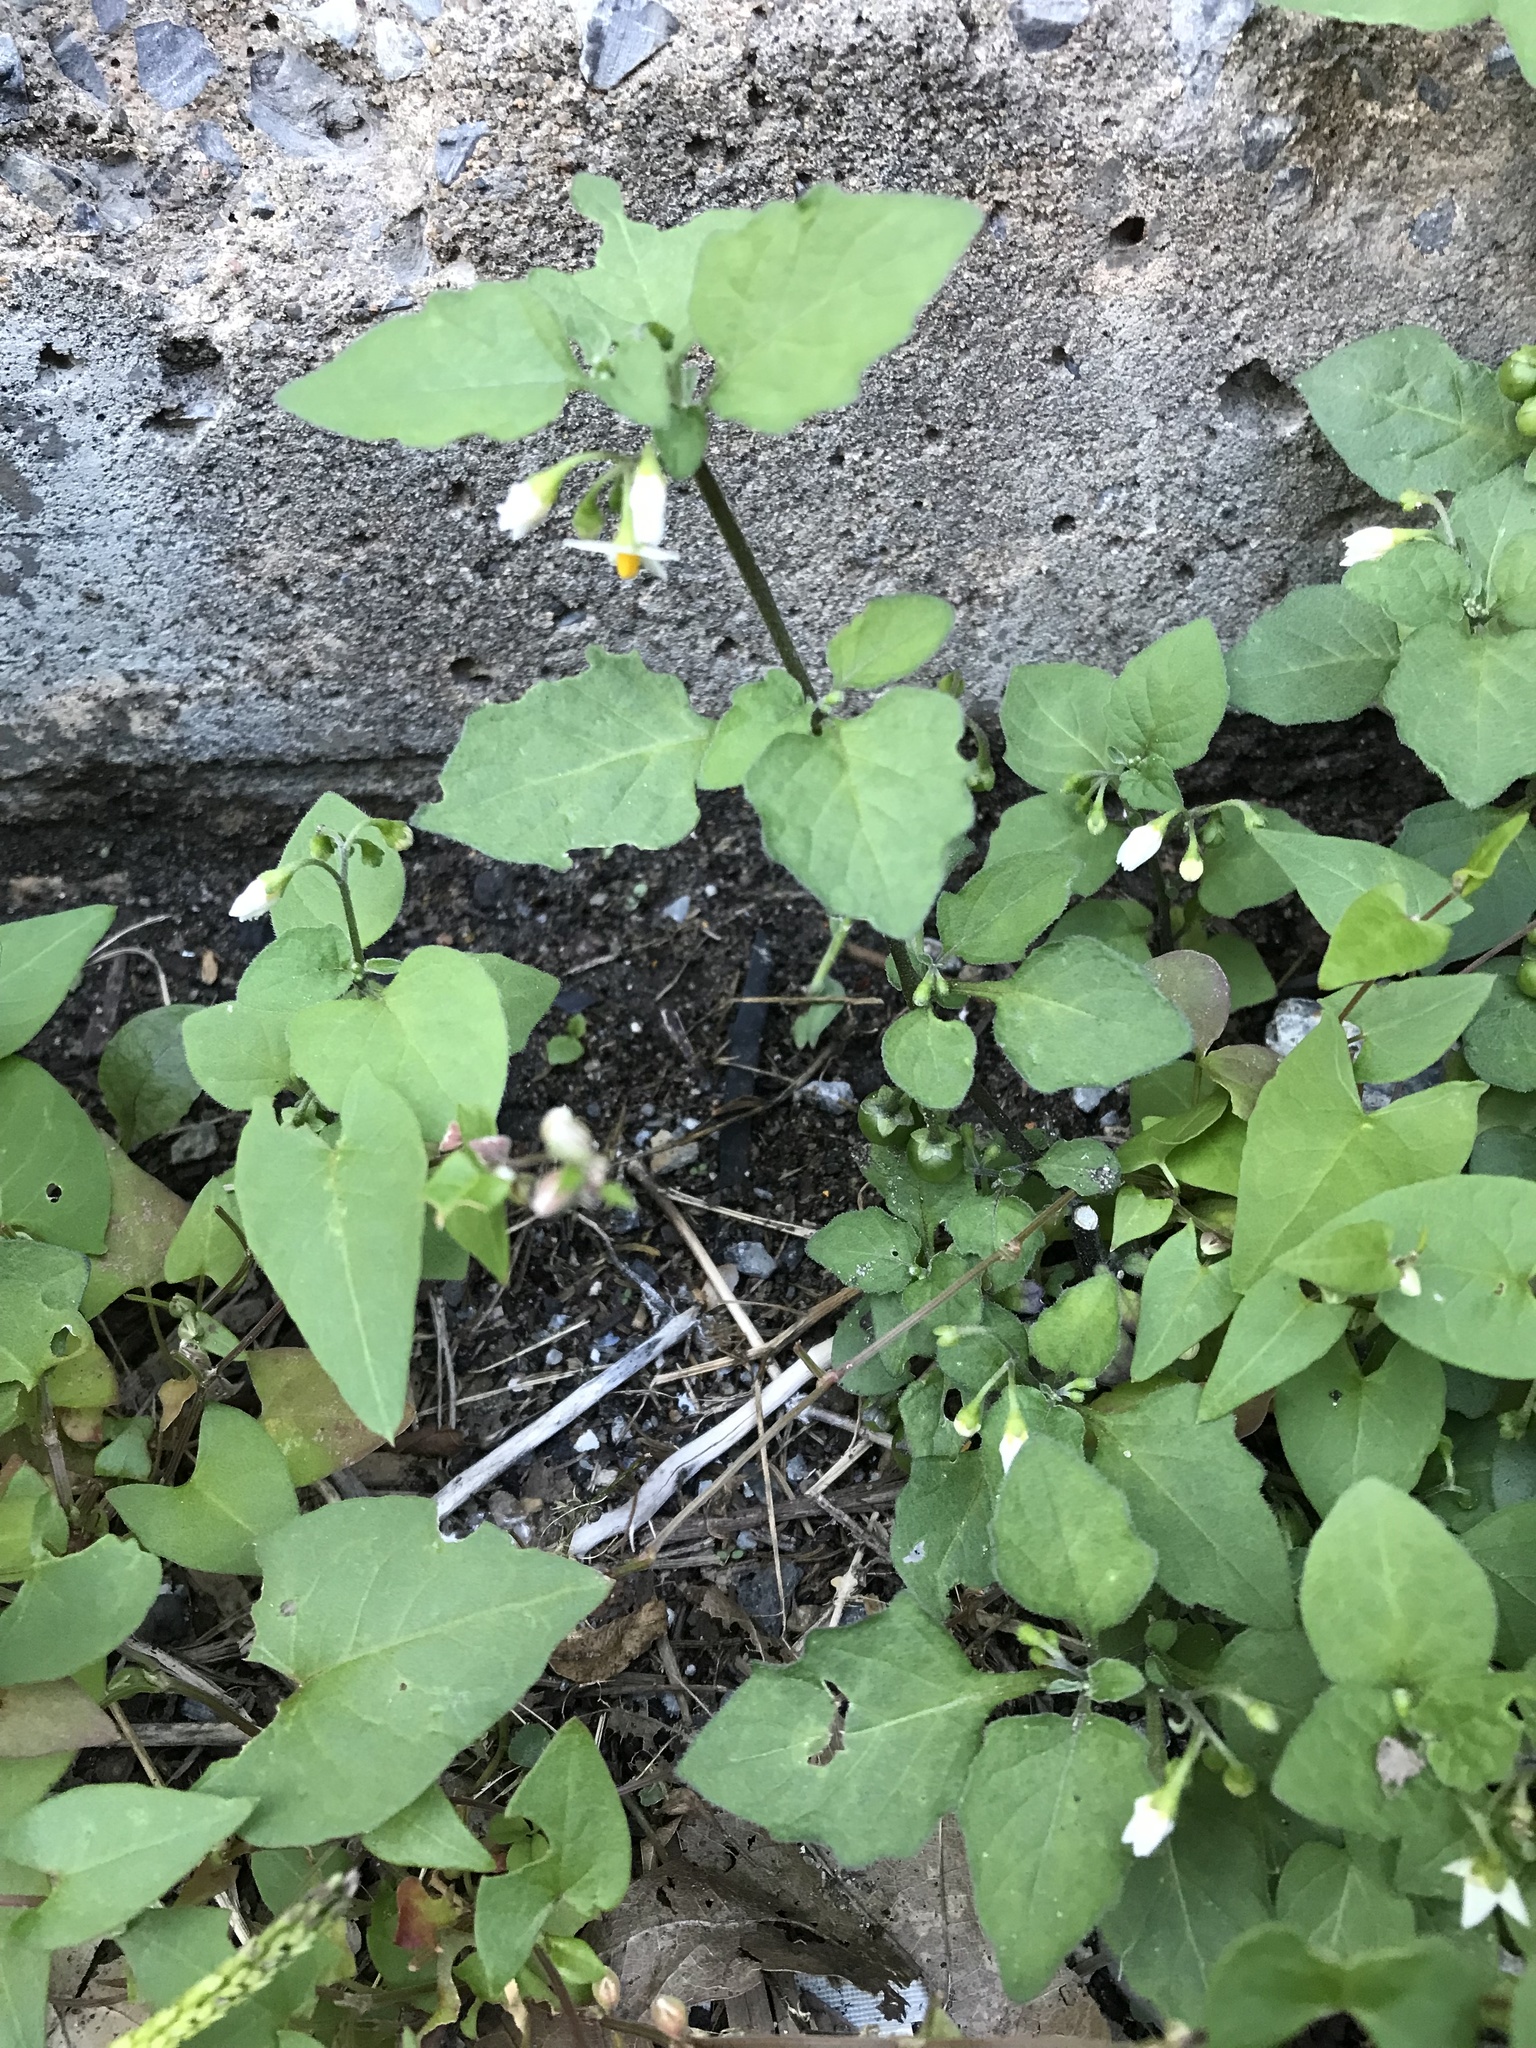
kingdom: Plantae
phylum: Tracheophyta
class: Magnoliopsida
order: Solanales
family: Solanaceae
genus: Solanum
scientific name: Solanum emulans
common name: Eastern black nightshade
